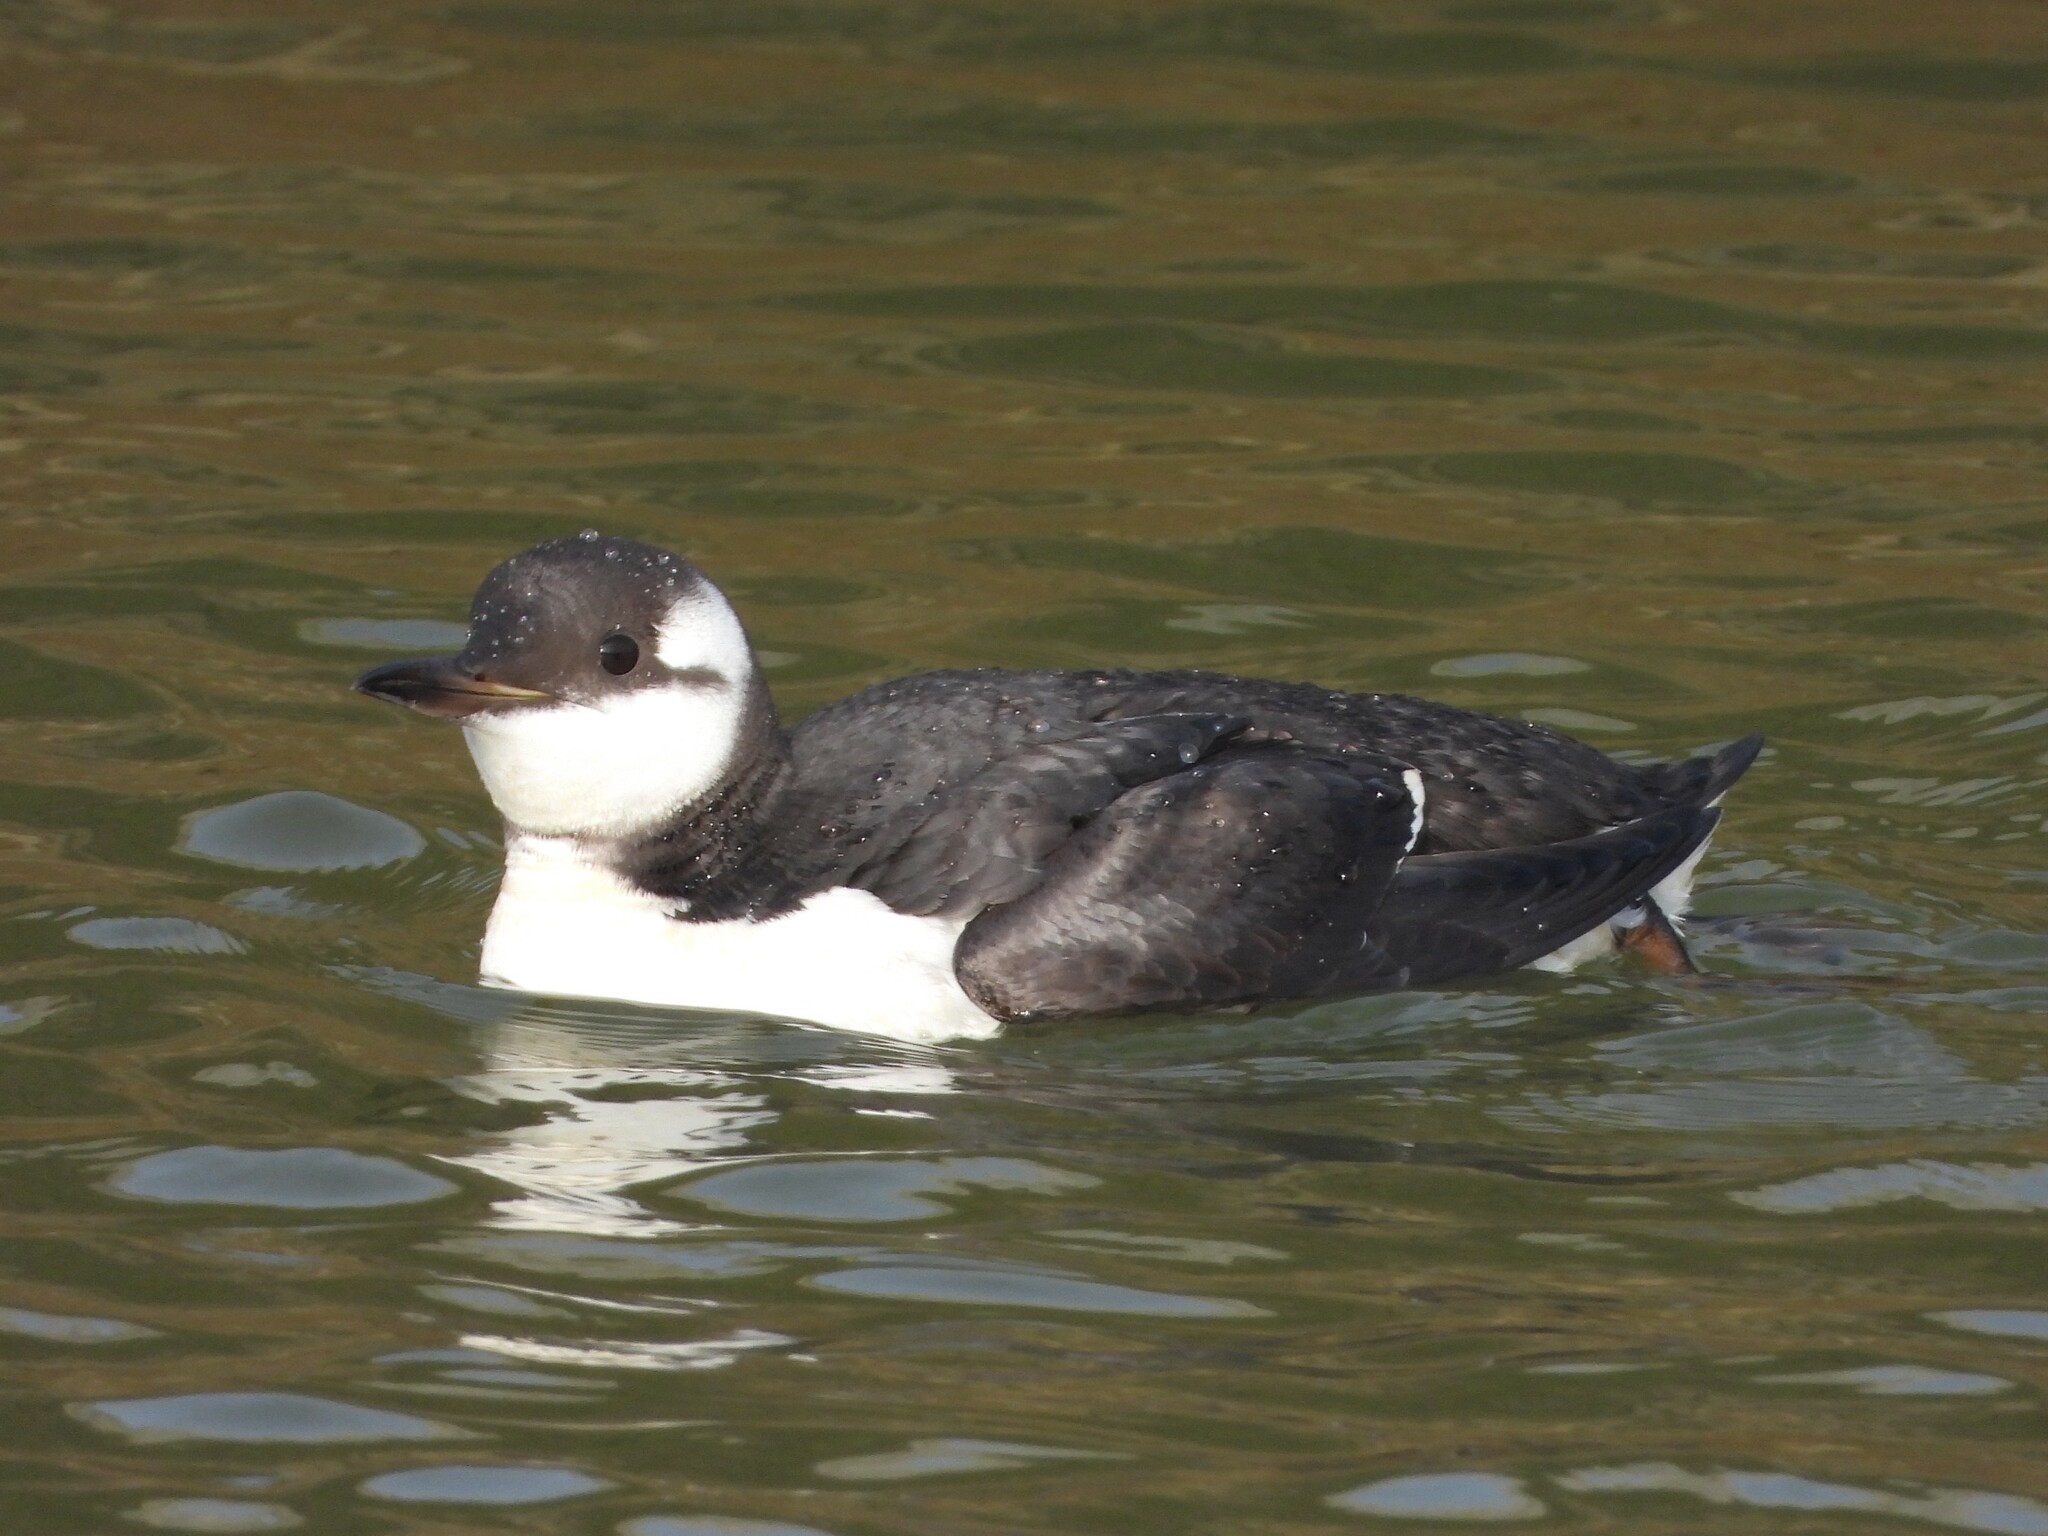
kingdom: Animalia
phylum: Chordata
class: Aves
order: Charadriiformes
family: Alcidae
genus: Uria
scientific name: Uria aalge
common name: Common murre
